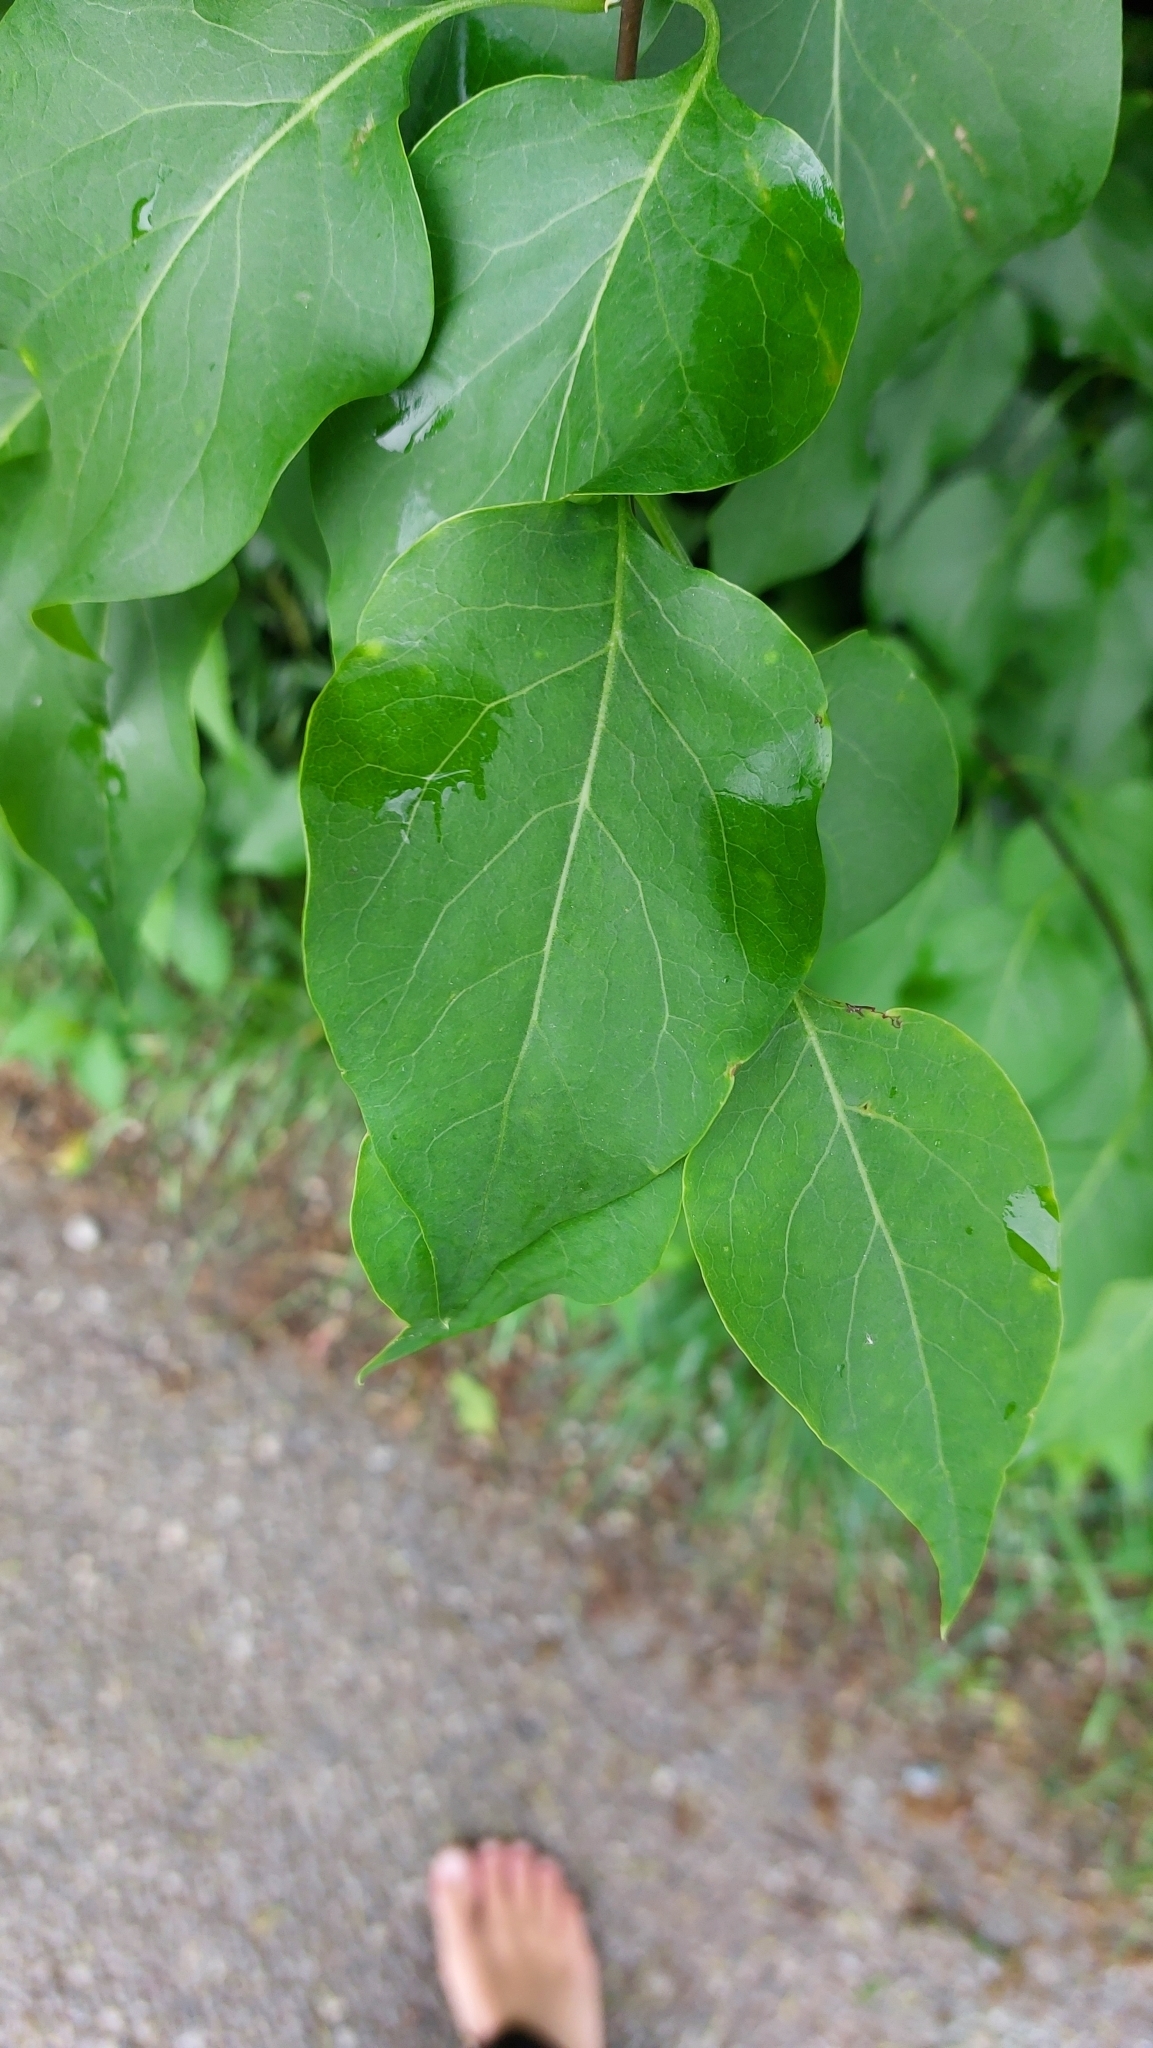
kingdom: Plantae
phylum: Tracheophyta
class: Magnoliopsida
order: Lamiales
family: Oleaceae
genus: Syringa
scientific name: Syringa vulgaris
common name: Common lilac
